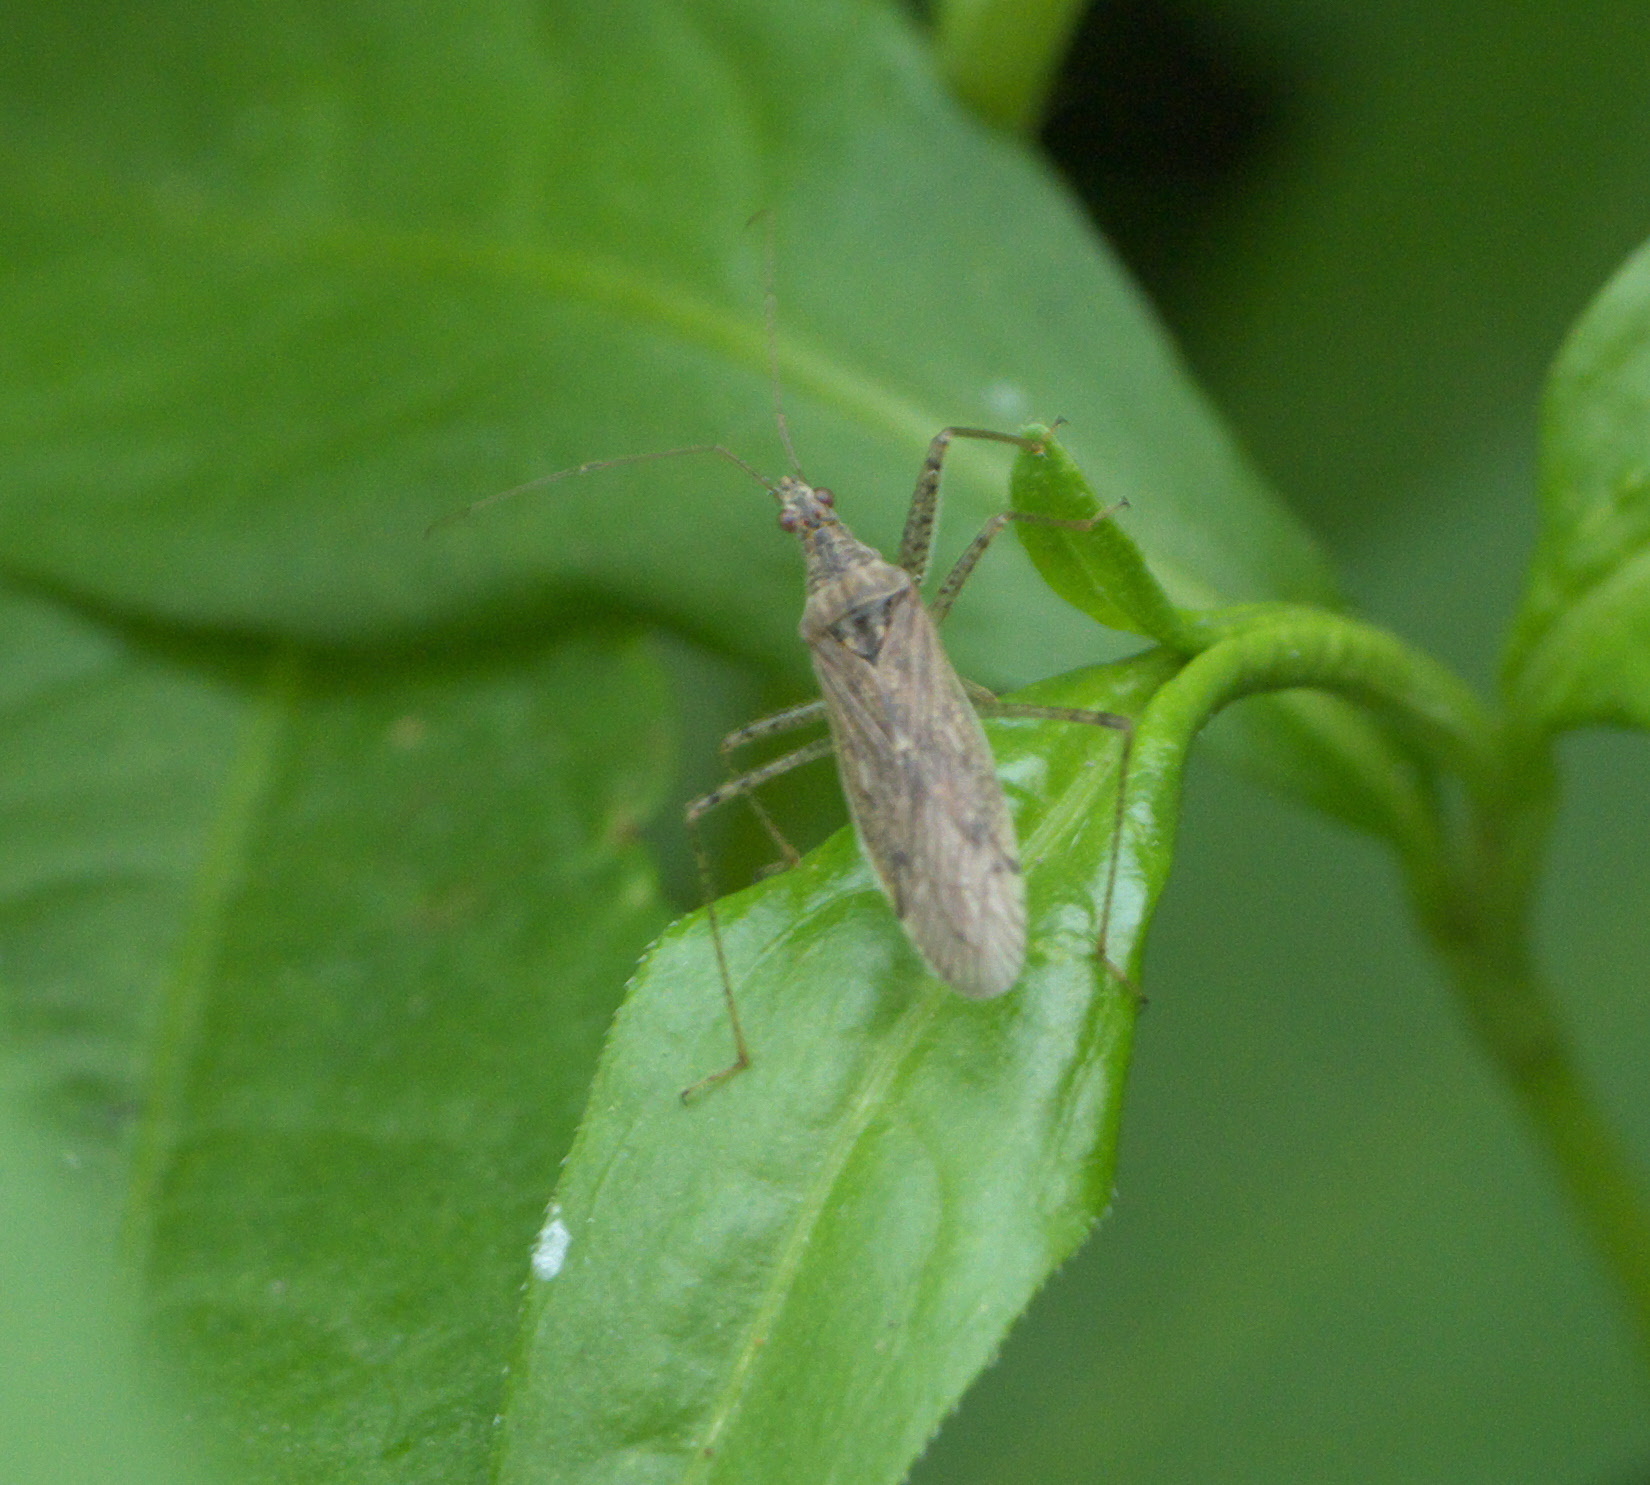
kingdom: Animalia
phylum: Arthropoda
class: Insecta
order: Hemiptera
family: Nabidae
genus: Nabis
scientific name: Nabis roseipennis
